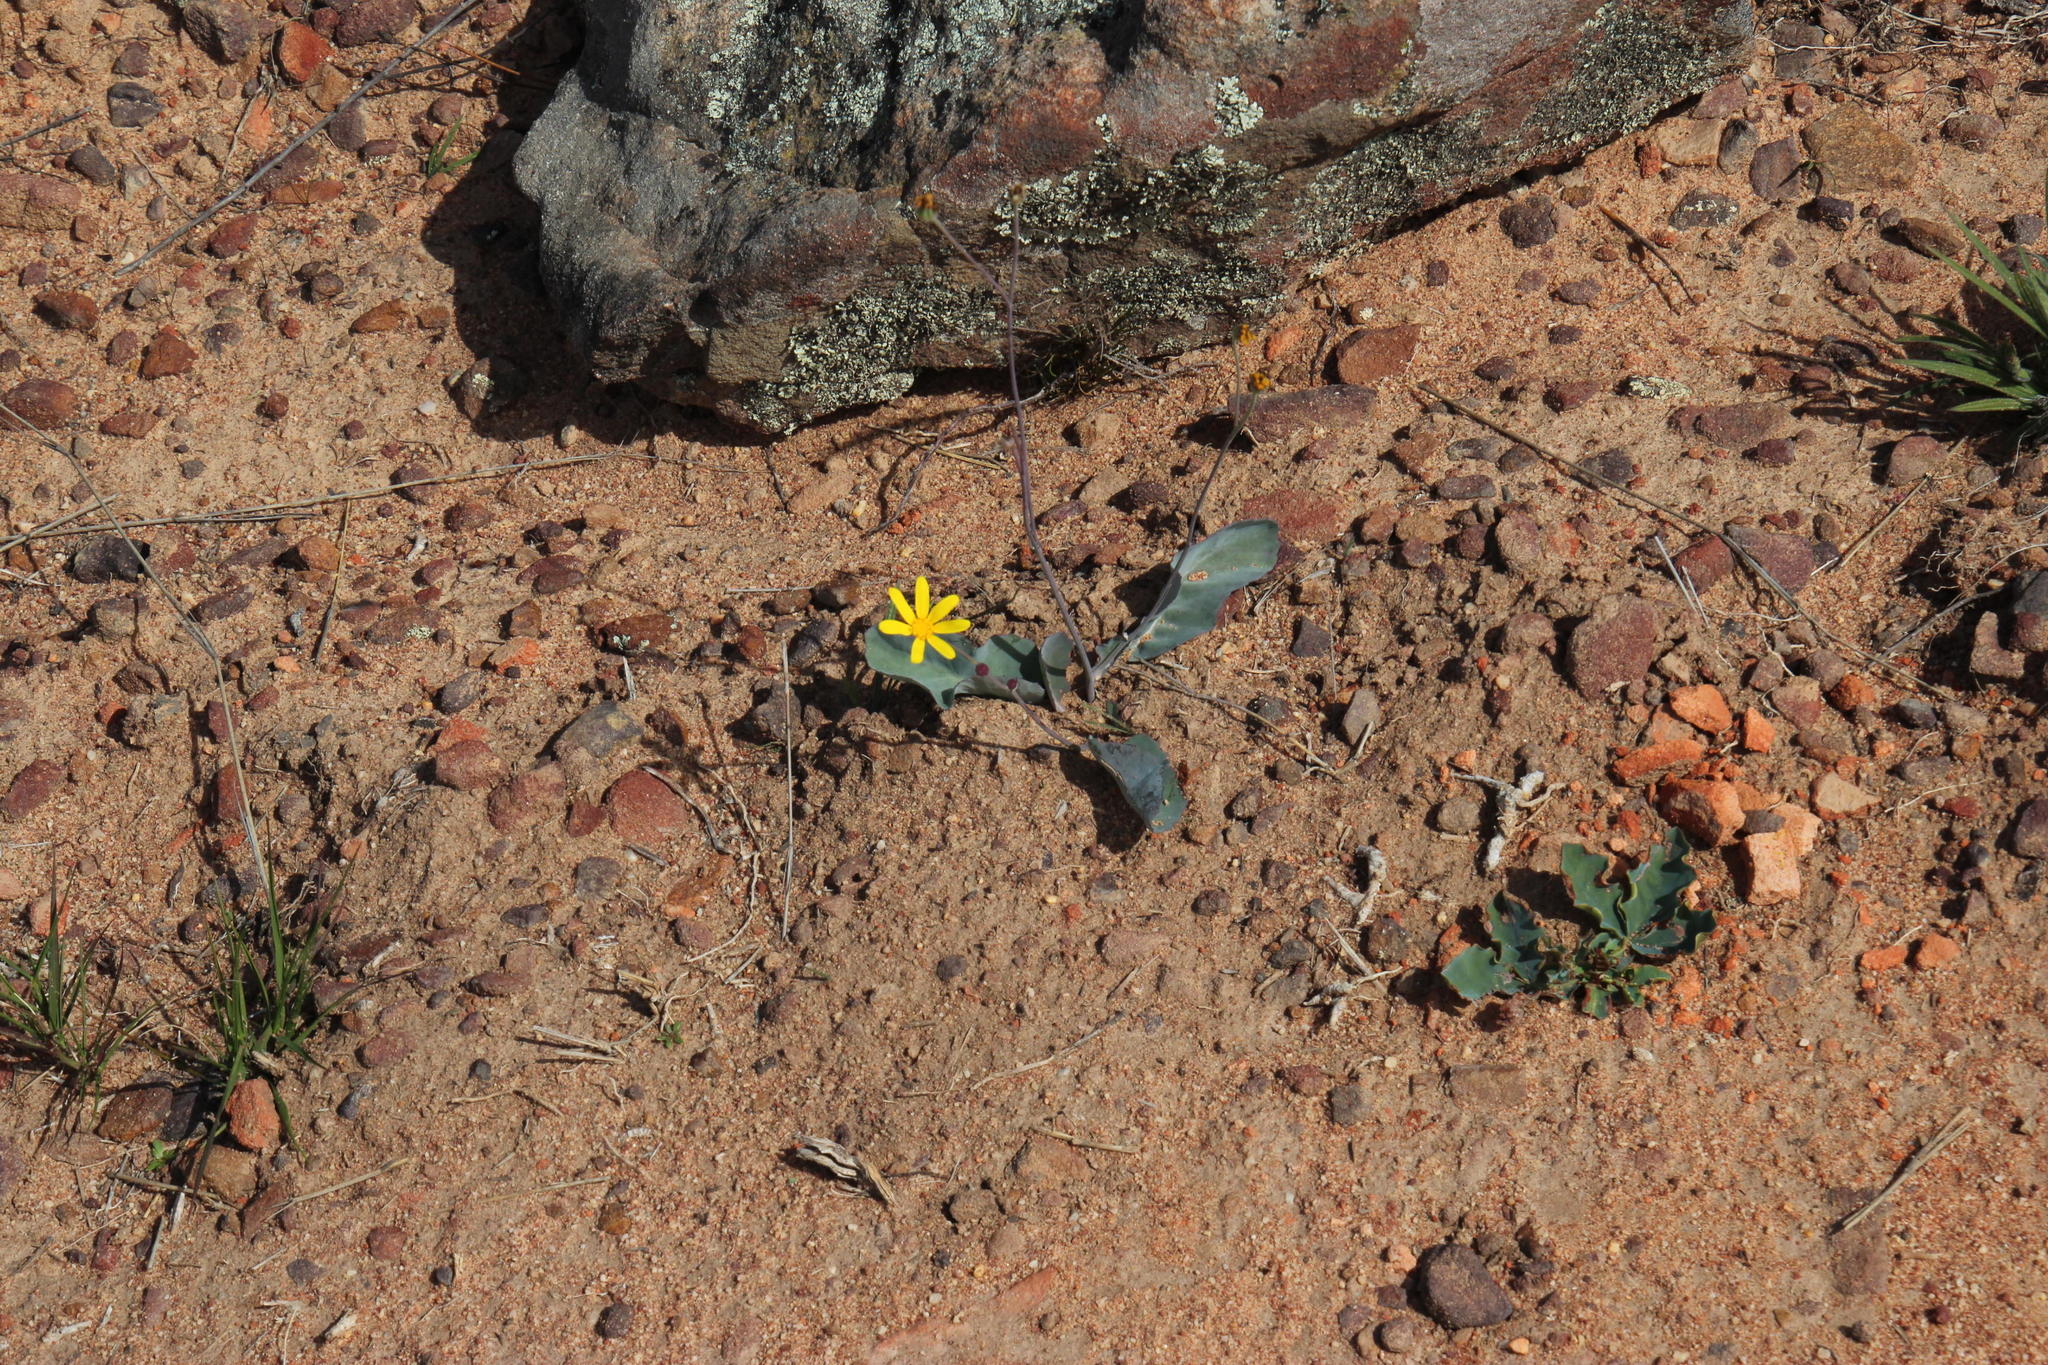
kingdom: Plantae
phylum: Tracheophyta
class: Magnoliopsida
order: Asterales
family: Asteraceae
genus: Othonna
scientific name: Othonna petiolaris
